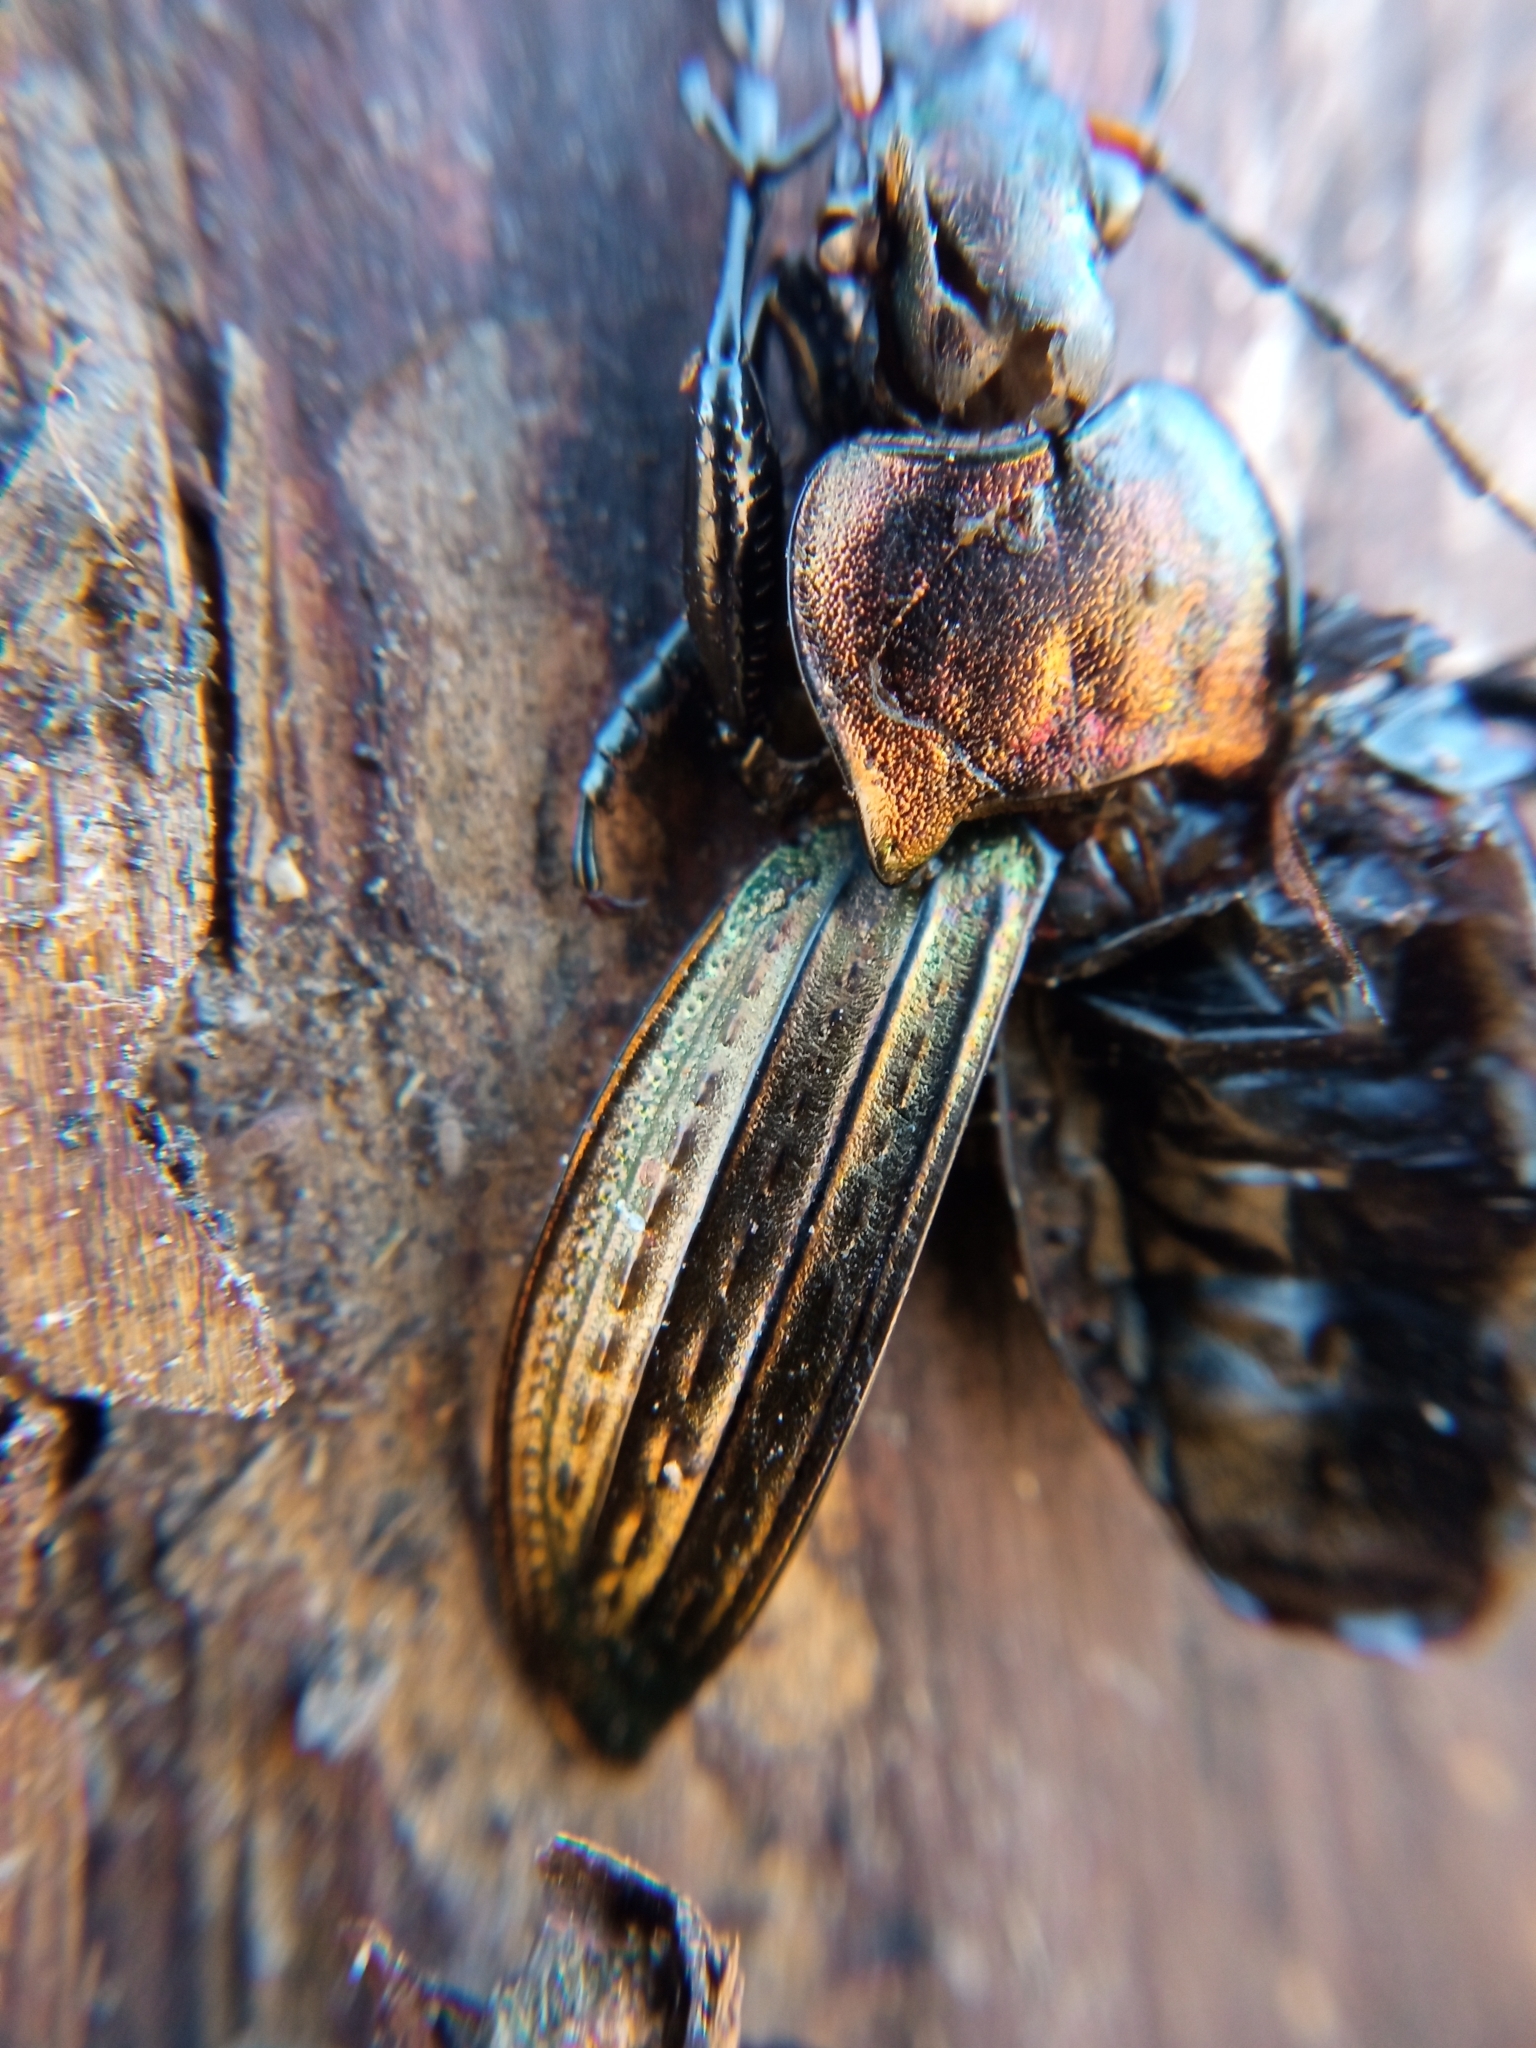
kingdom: Animalia
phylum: Arthropoda
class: Insecta
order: Coleoptera
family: Carabidae
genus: Carabus
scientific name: Carabus cancellatus
